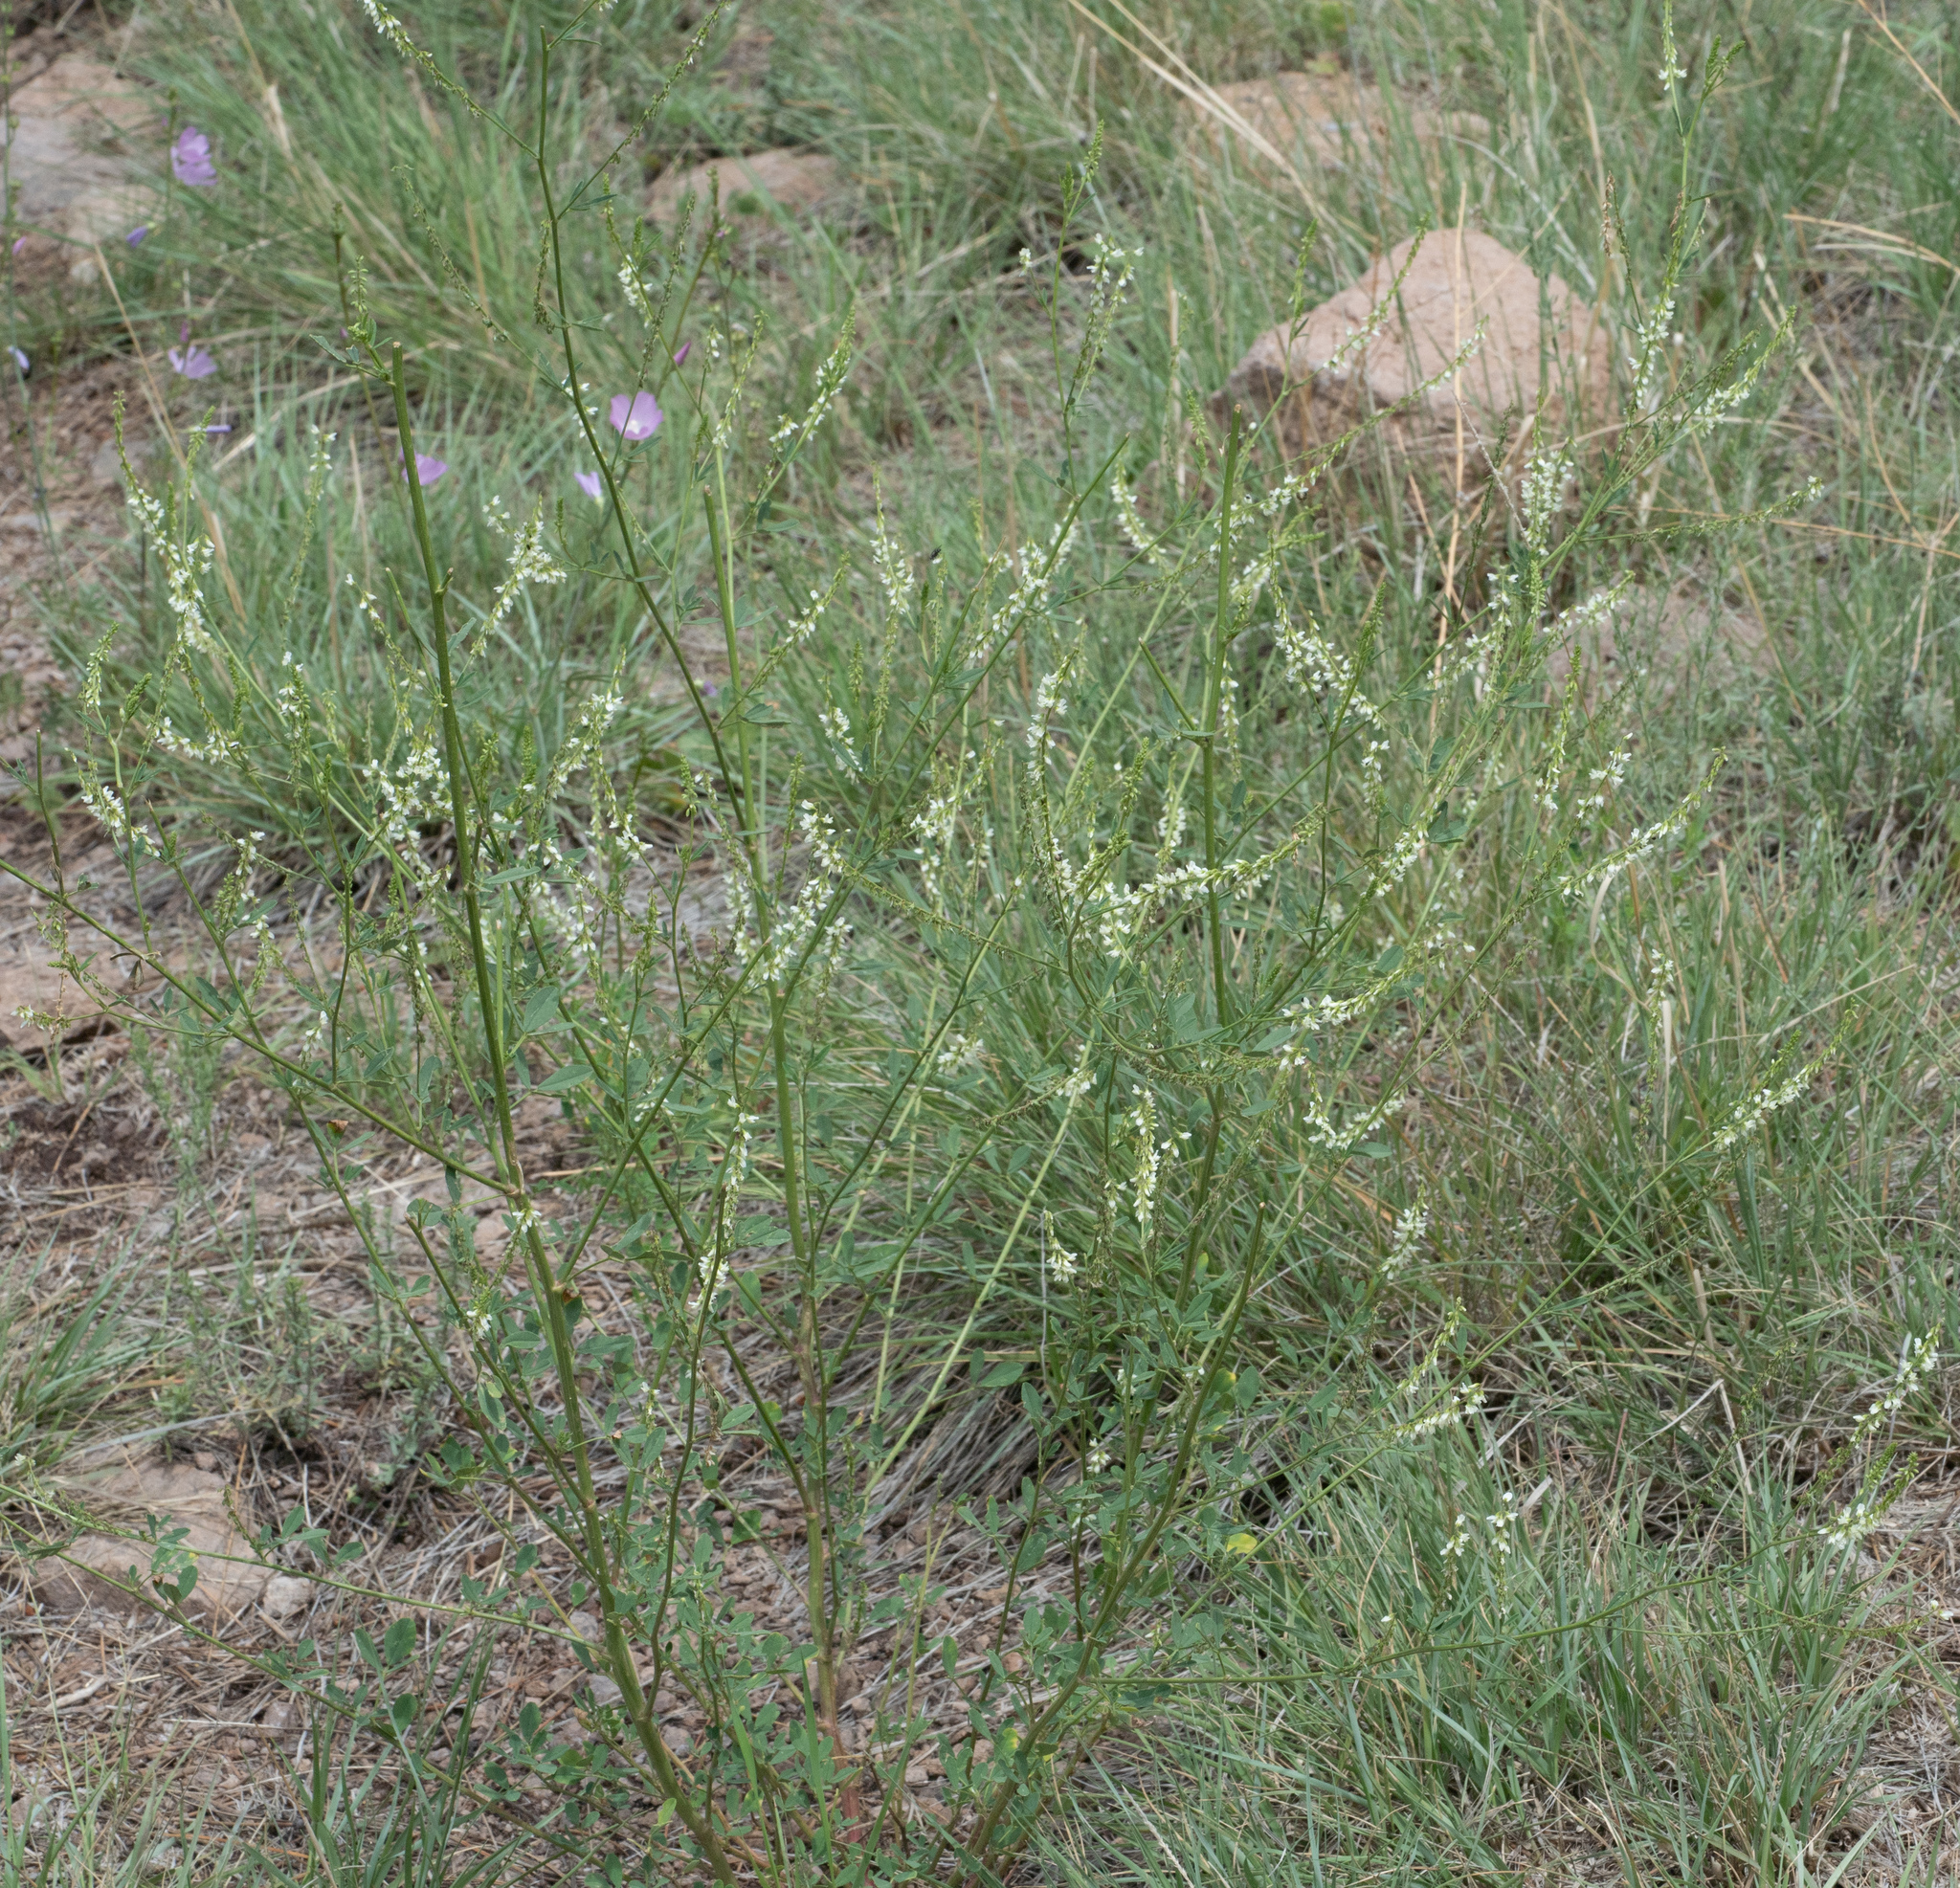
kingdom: Plantae
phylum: Tracheophyta
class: Magnoliopsida
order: Fabales
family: Fabaceae
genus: Melilotus
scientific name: Melilotus albus
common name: White melilot
